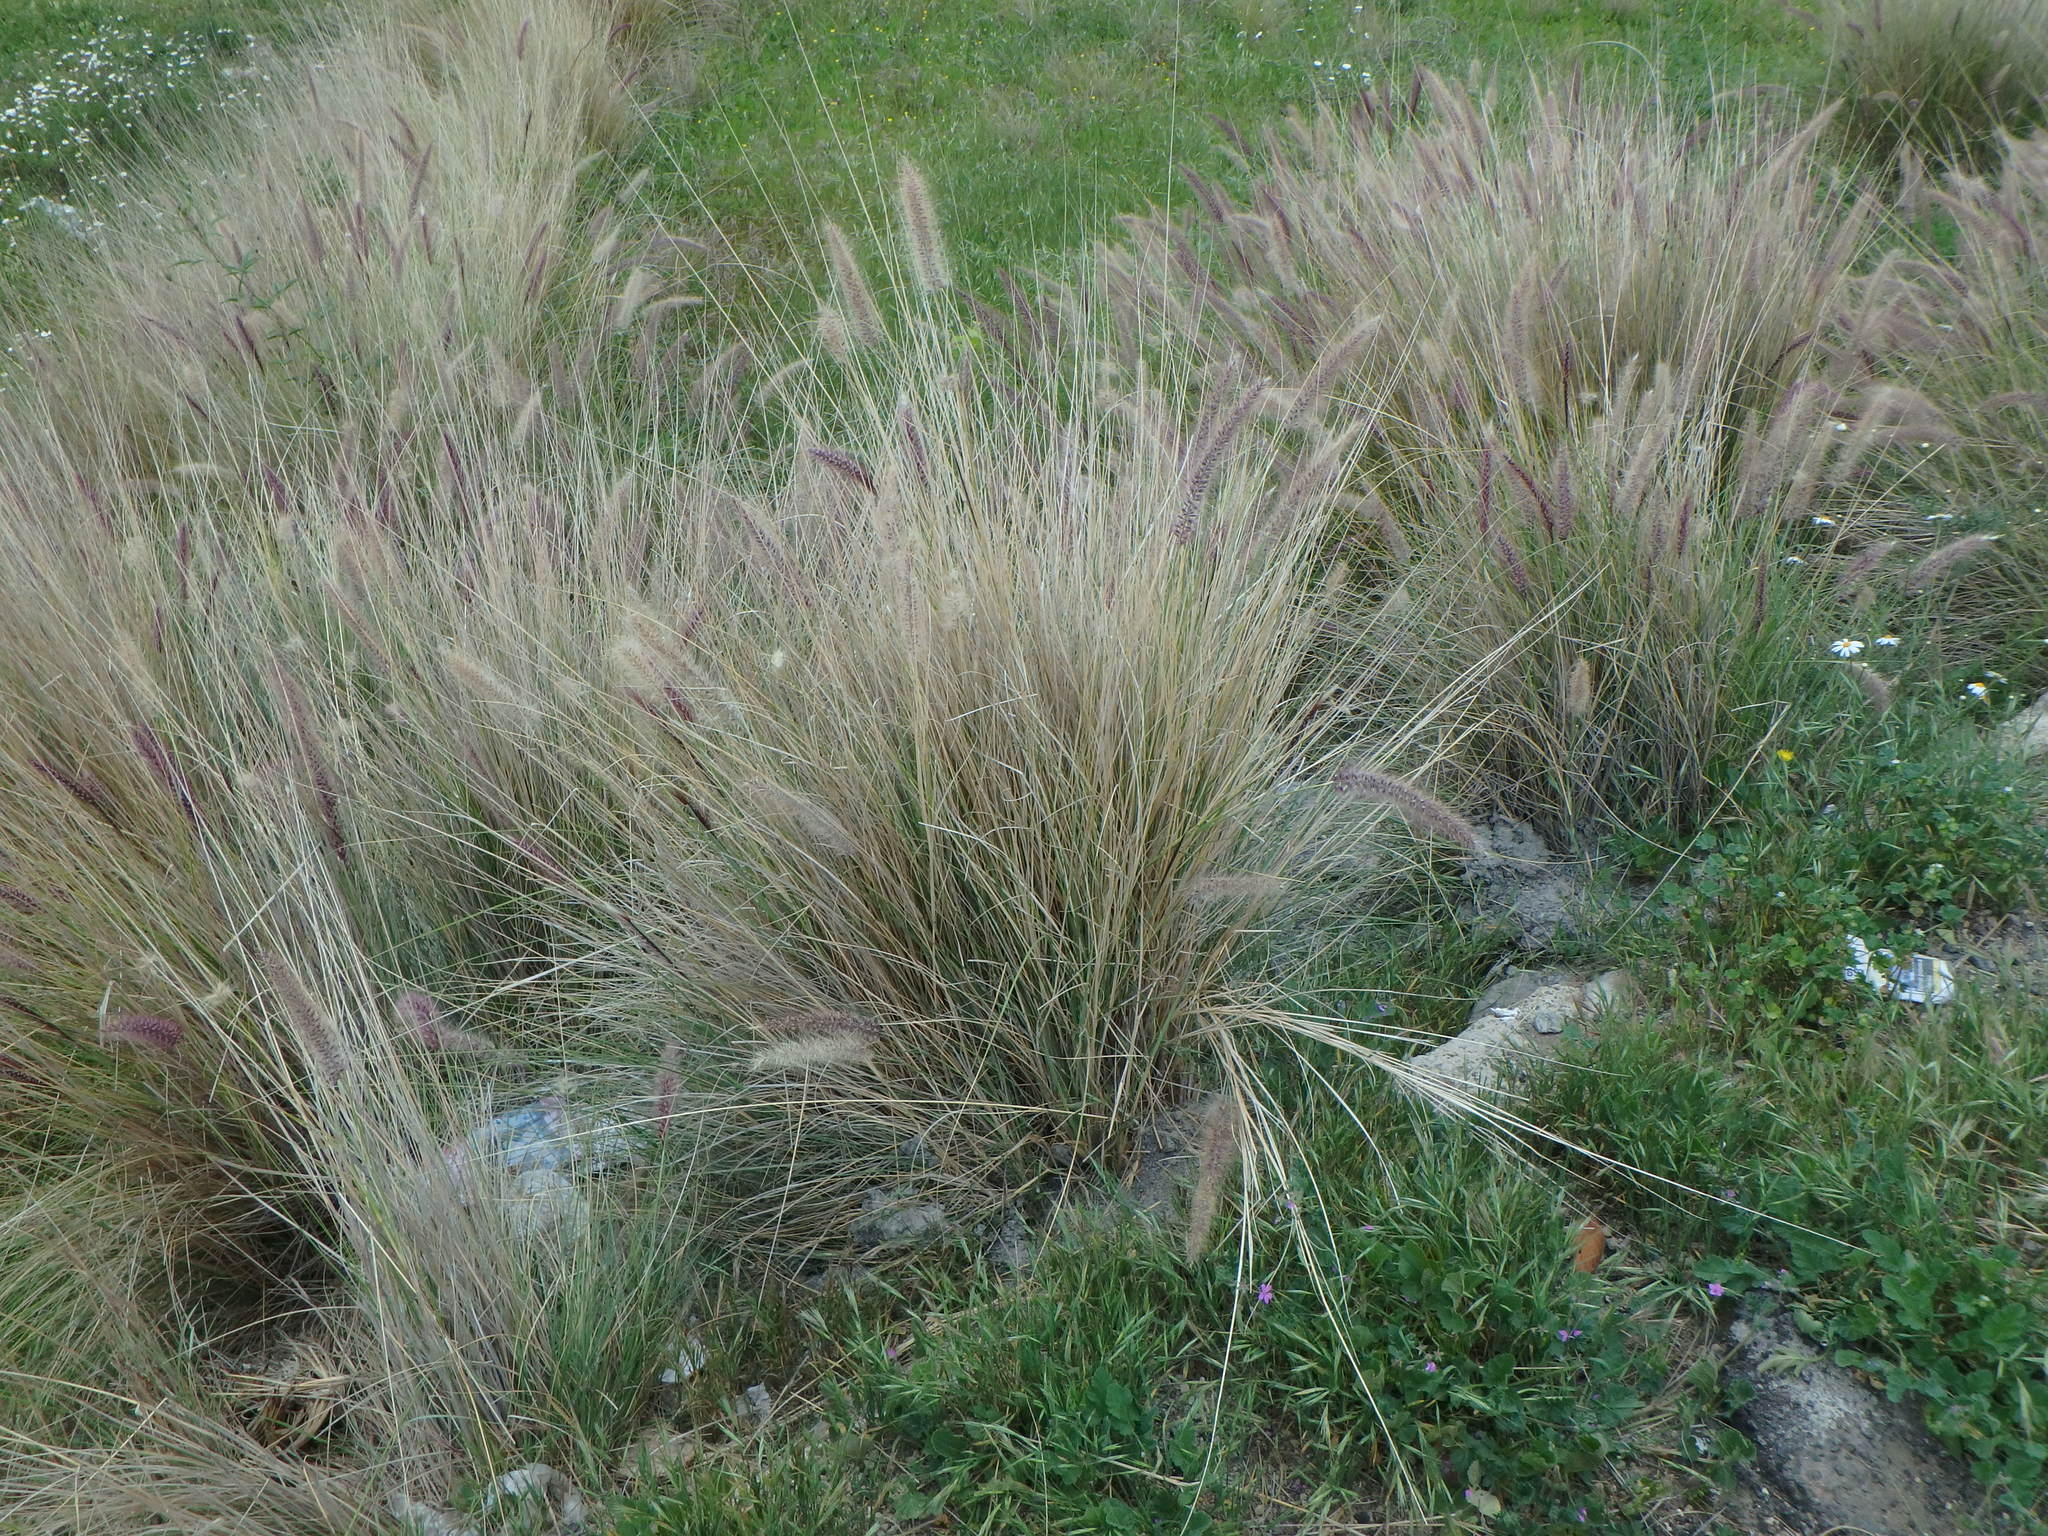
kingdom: Plantae
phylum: Tracheophyta
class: Liliopsida
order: Poales
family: Poaceae
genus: Cenchrus
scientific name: Cenchrus setaceus
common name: Crimson fountaingrass
